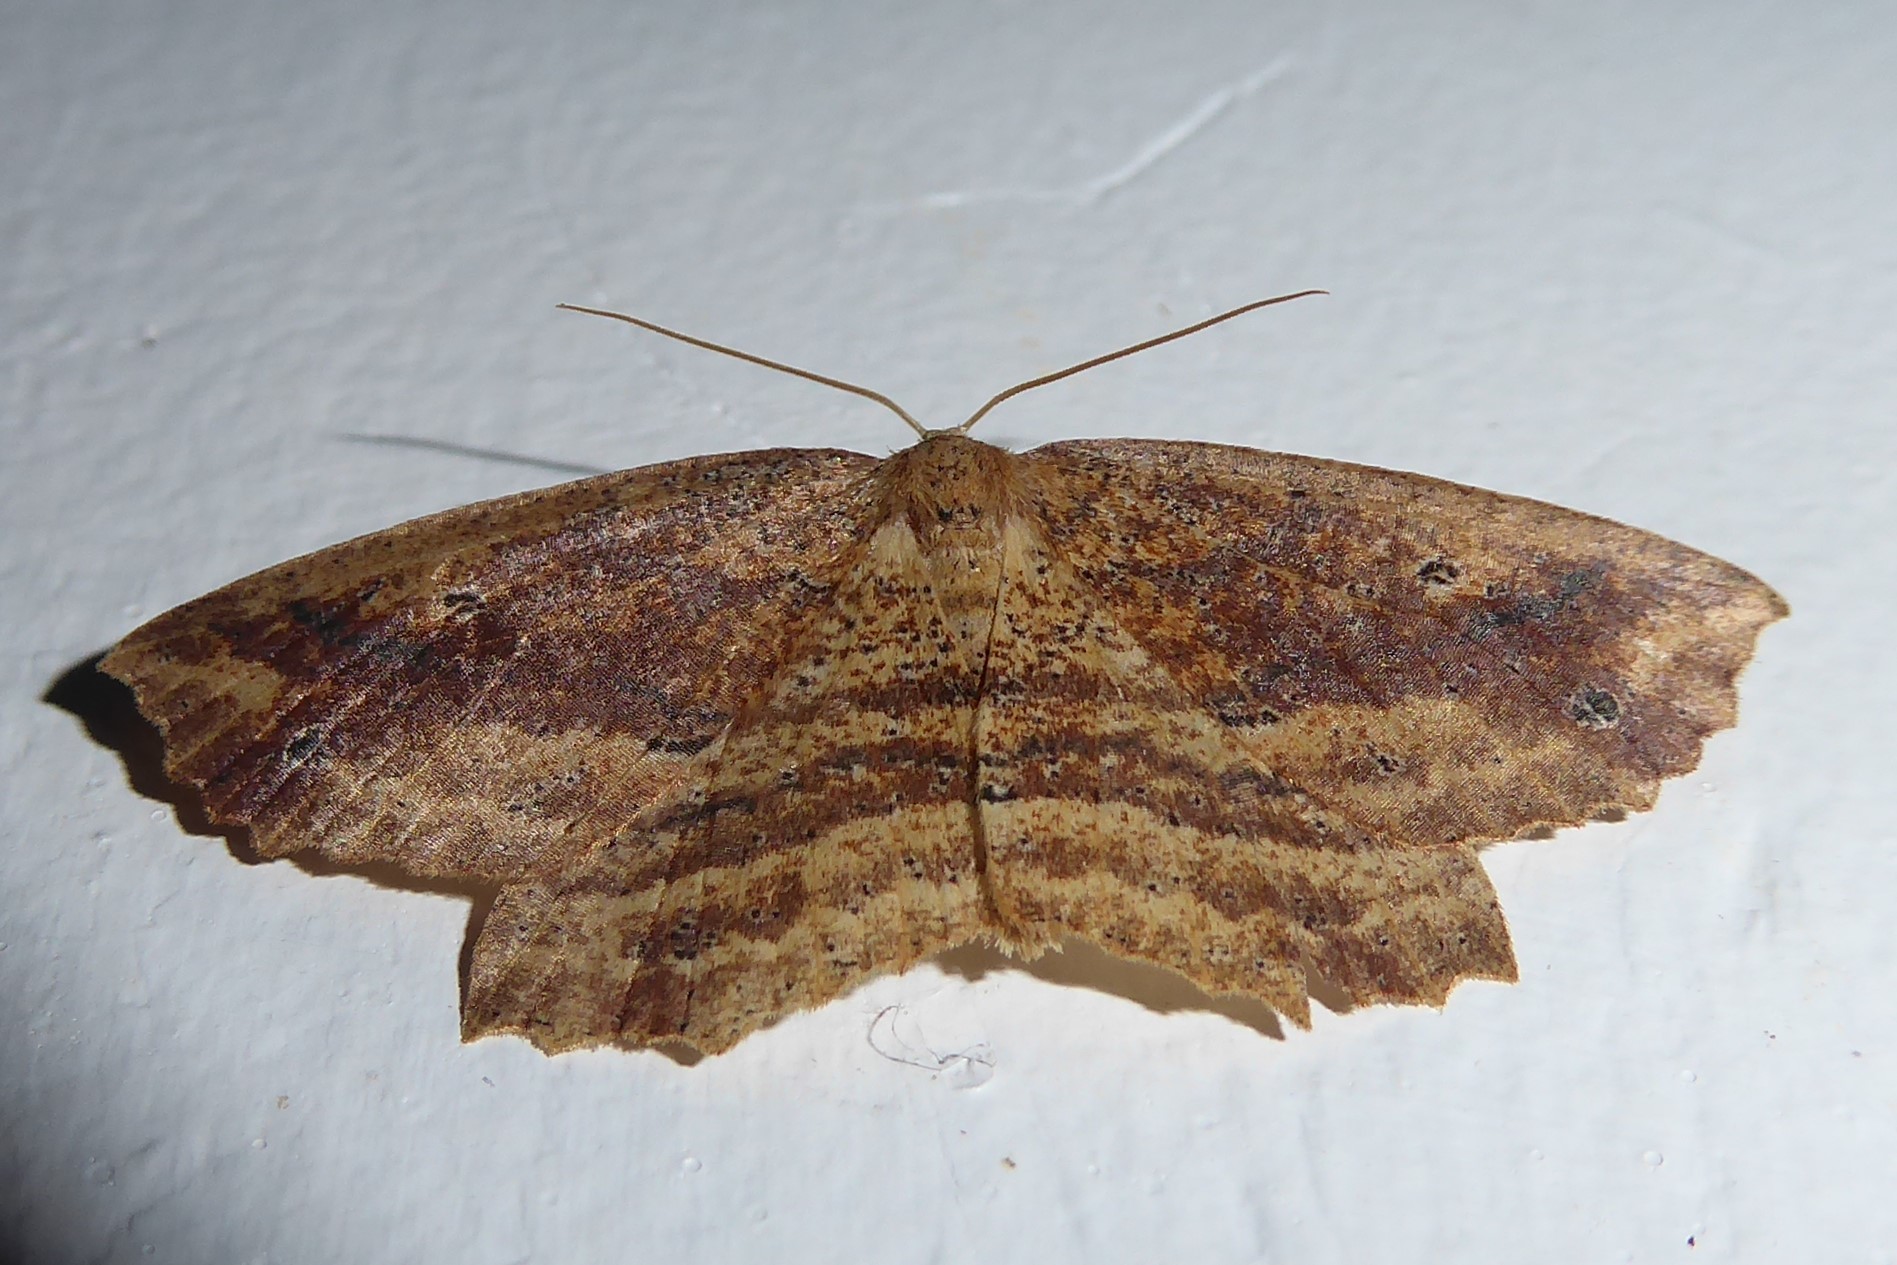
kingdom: Animalia
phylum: Arthropoda
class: Insecta
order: Lepidoptera
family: Geometridae
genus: Xyridacma
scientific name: Xyridacma veronicae
